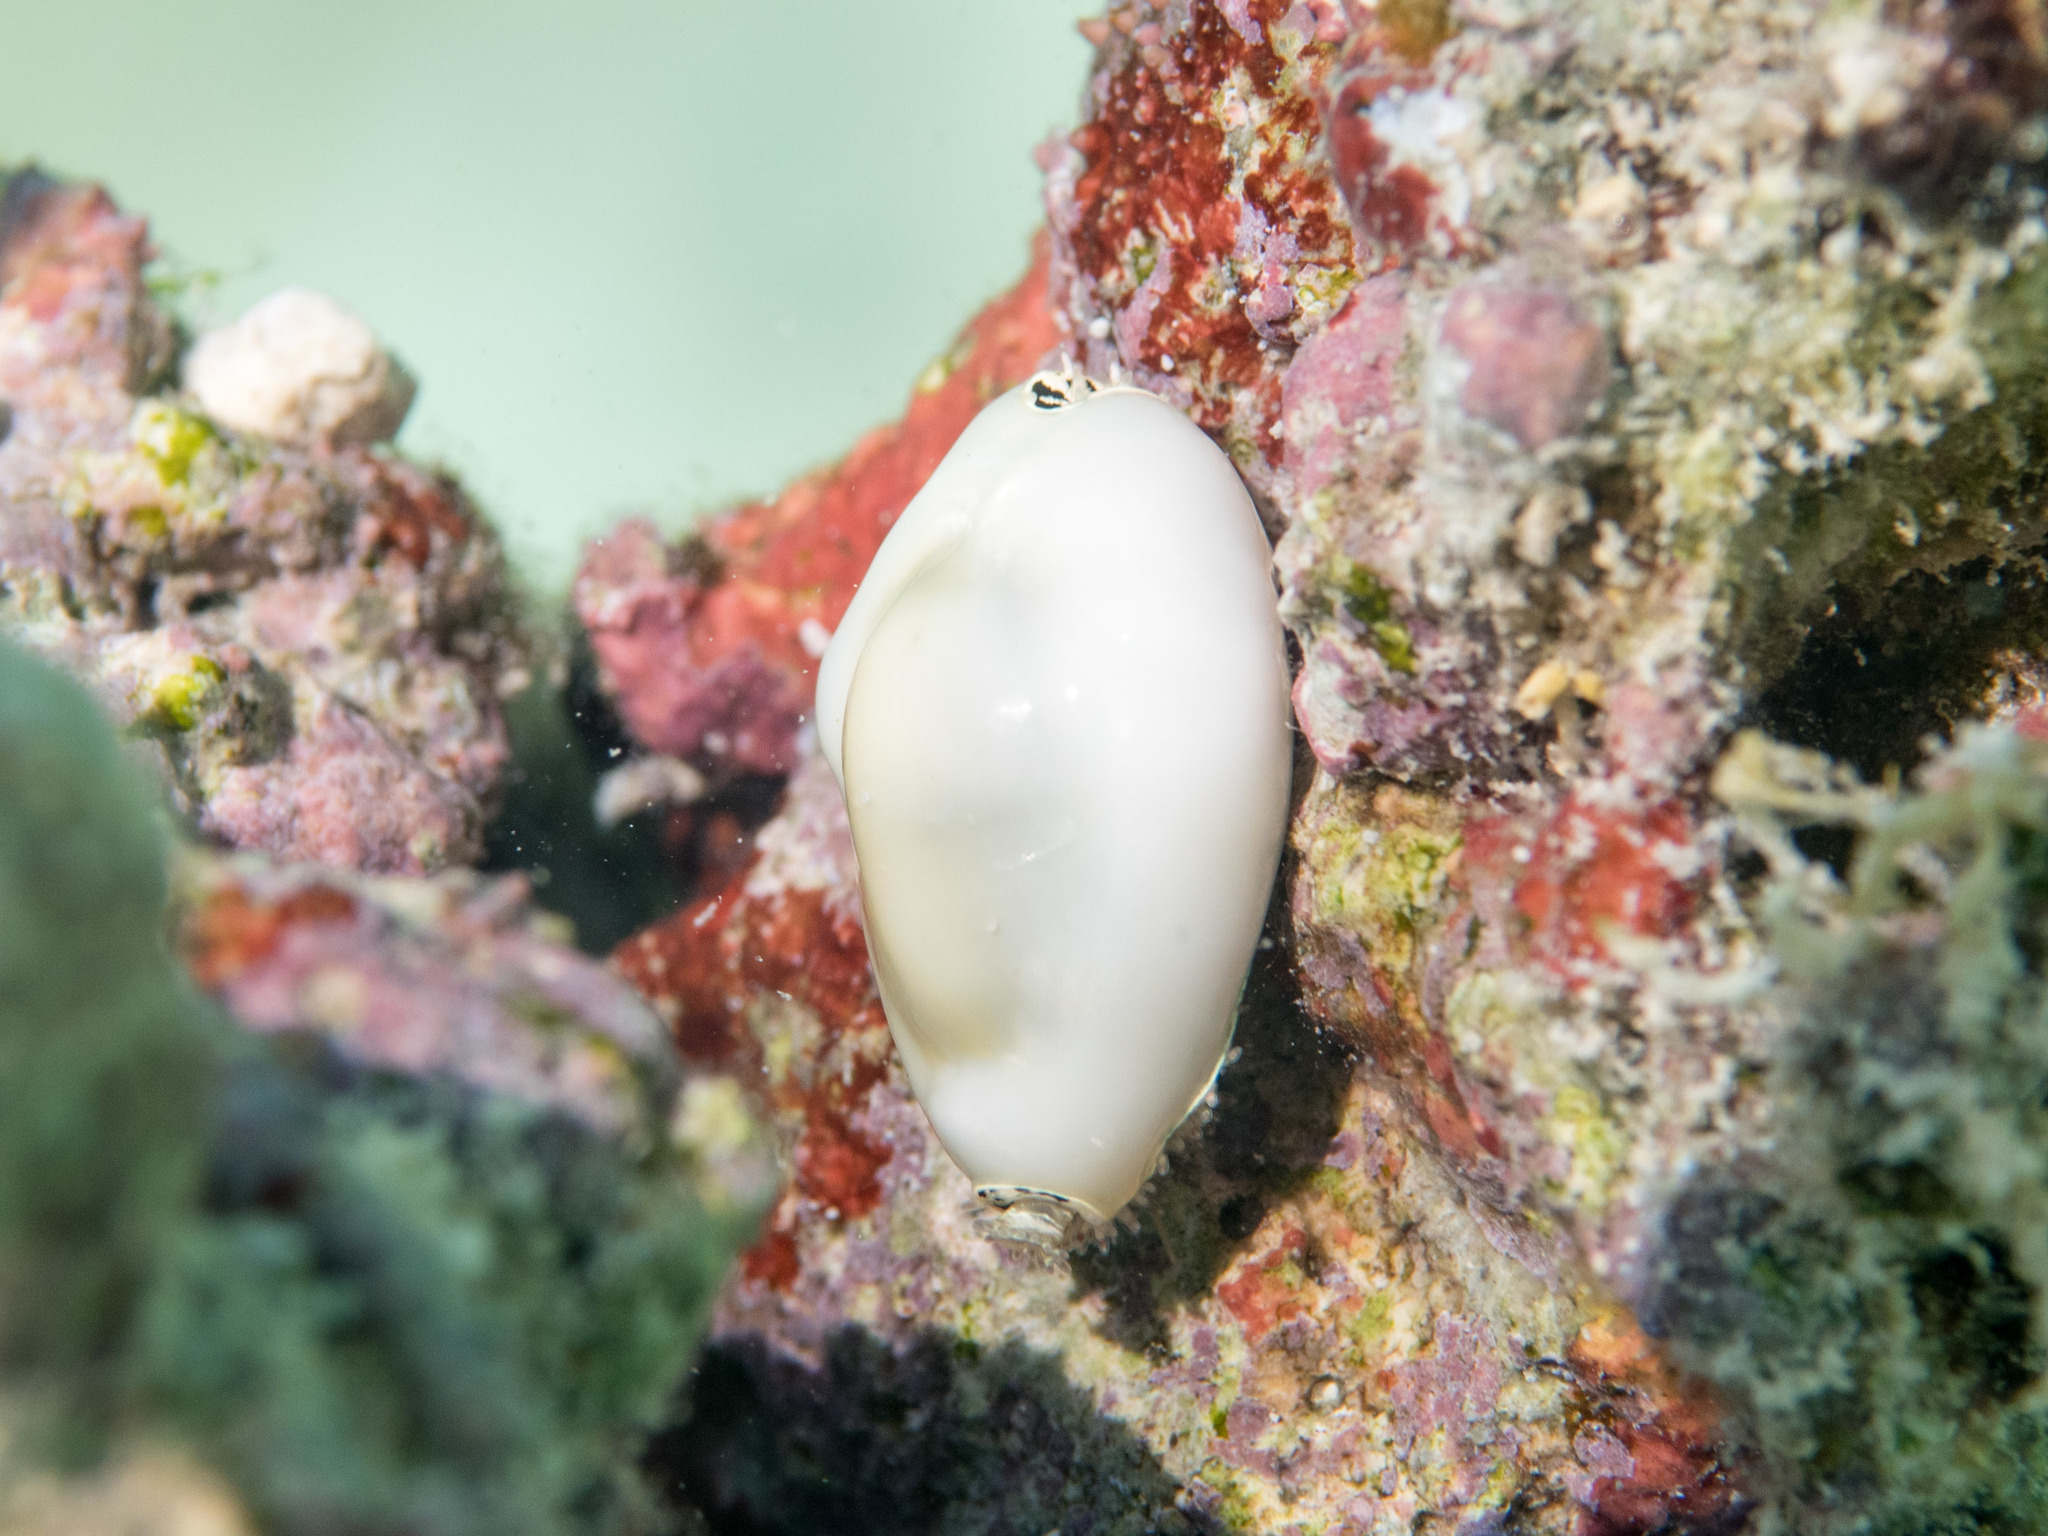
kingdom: Animalia
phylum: Mollusca
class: Gastropoda
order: Littorinimorpha
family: Cypraeidae
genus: Monetaria
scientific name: Monetaria moneta
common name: Money cowrie
